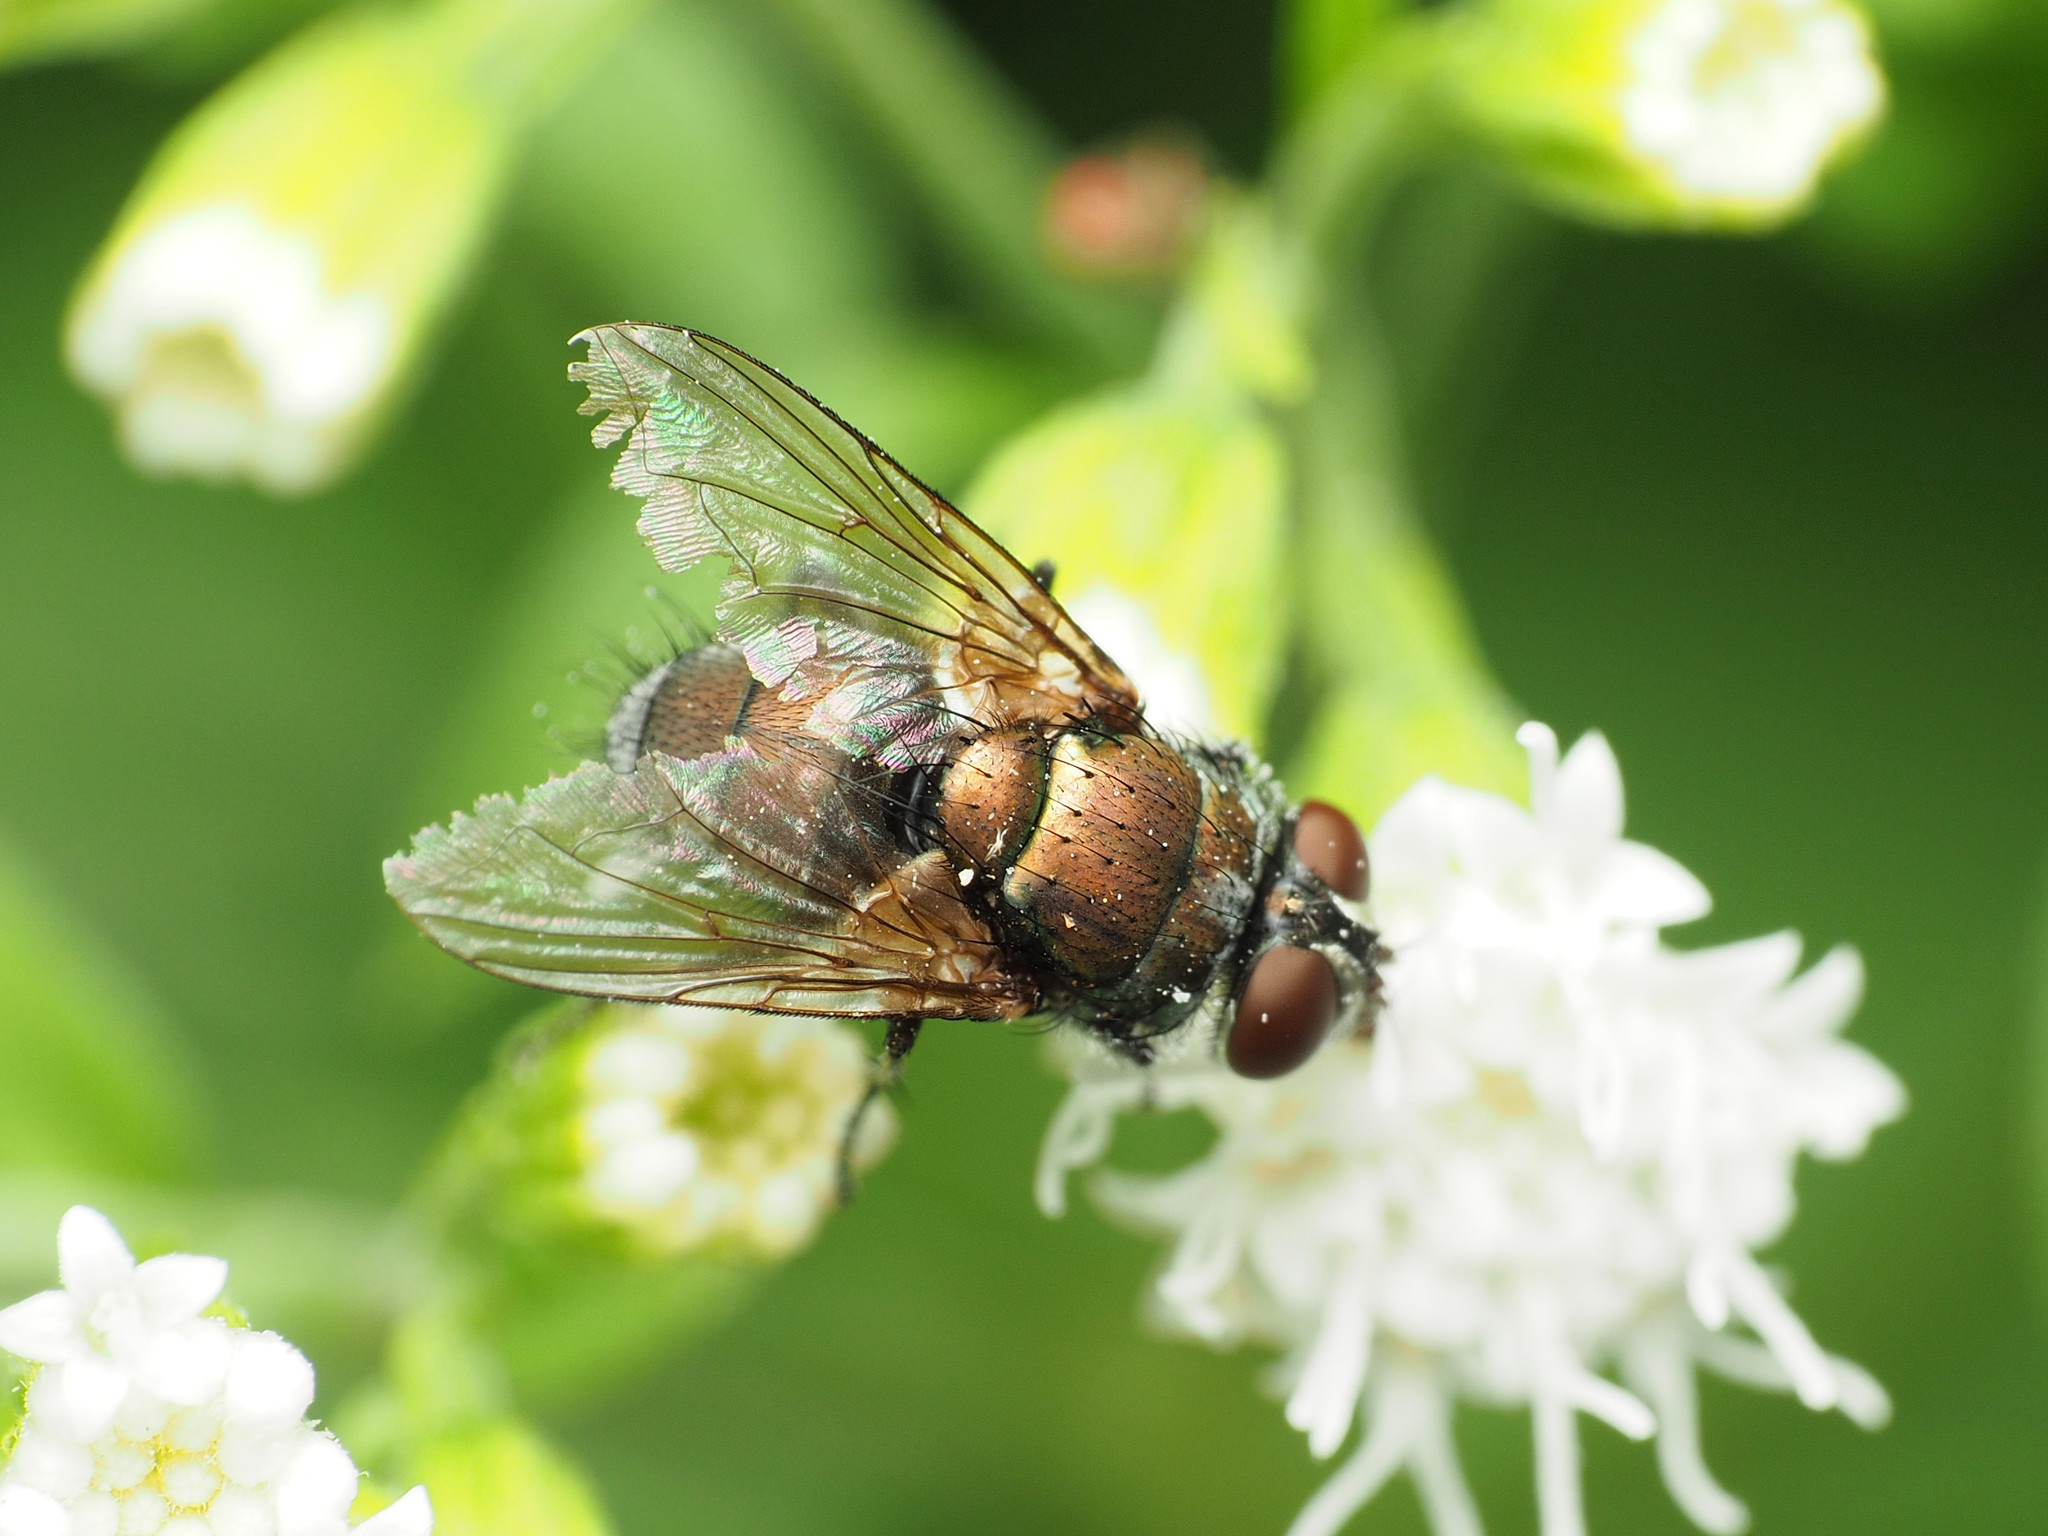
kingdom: Animalia
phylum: Arthropoda
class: Insecta
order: Diptera
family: Calliphoridae
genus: Lucilia
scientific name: Lucilia cuprina
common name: Sheep blow fly
